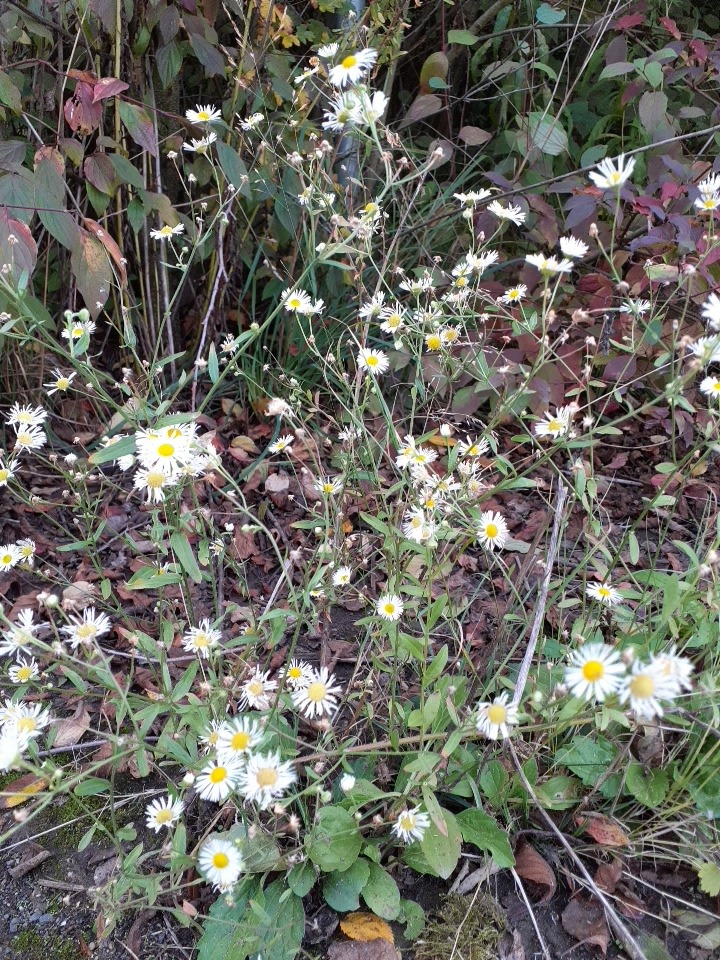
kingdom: Plantae
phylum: Tracheophyta
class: Magnoliopsida
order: Asterales
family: Asteraceae
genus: Erigeron
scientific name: Erigeron annuus
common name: Tall fleabane
